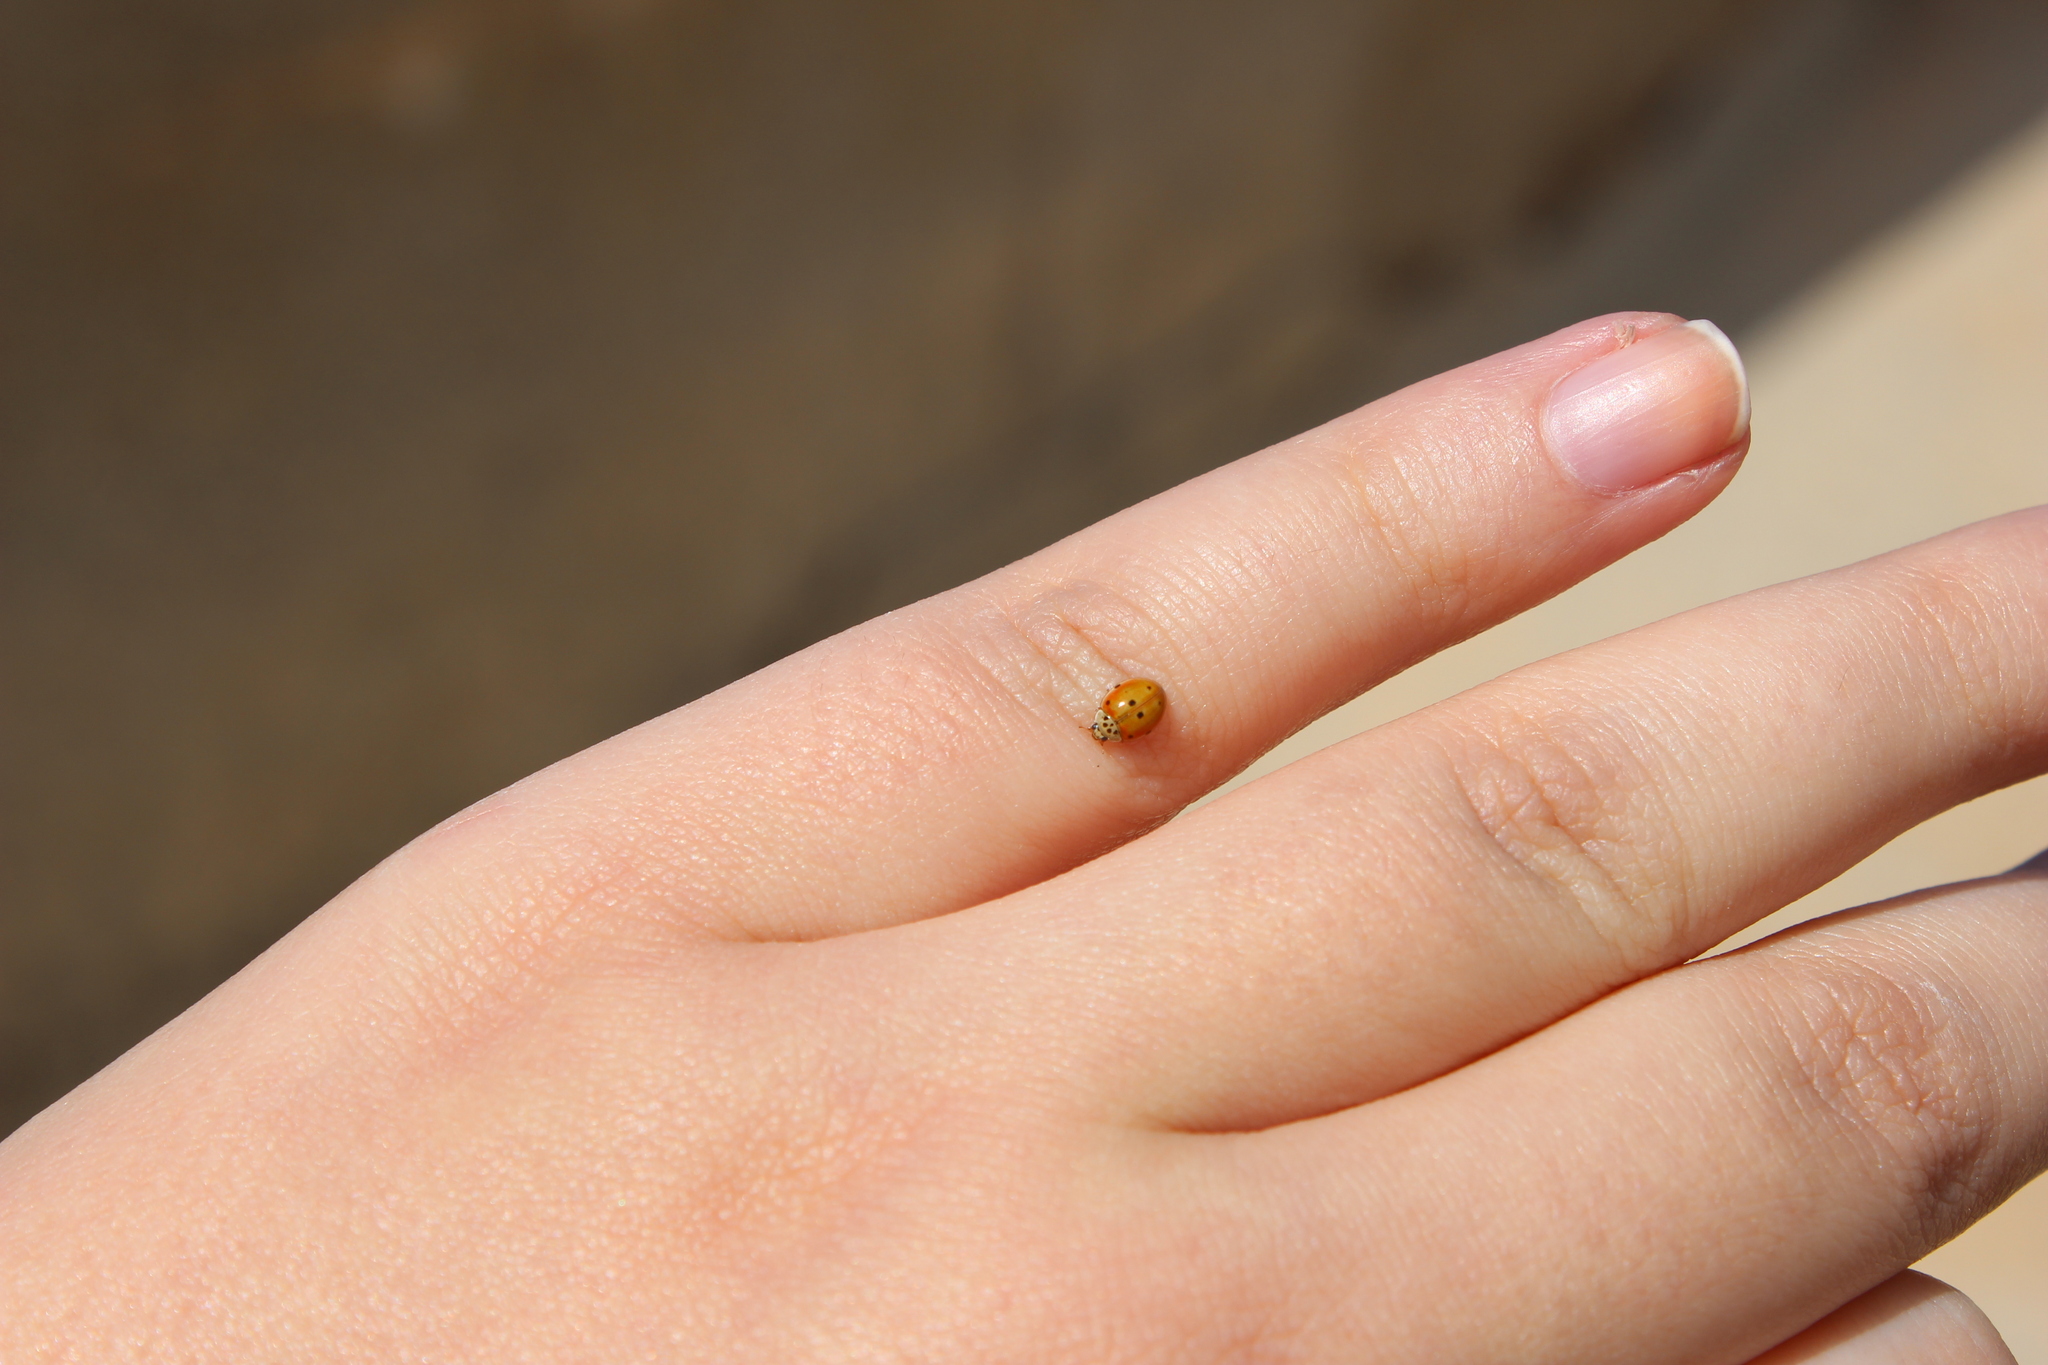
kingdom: Animalia
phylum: Arthropoda
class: Insecta
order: Coleoptera
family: Coccinellidae
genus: Adalia
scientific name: Adalia decempunctata
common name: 10-spot ladybird
